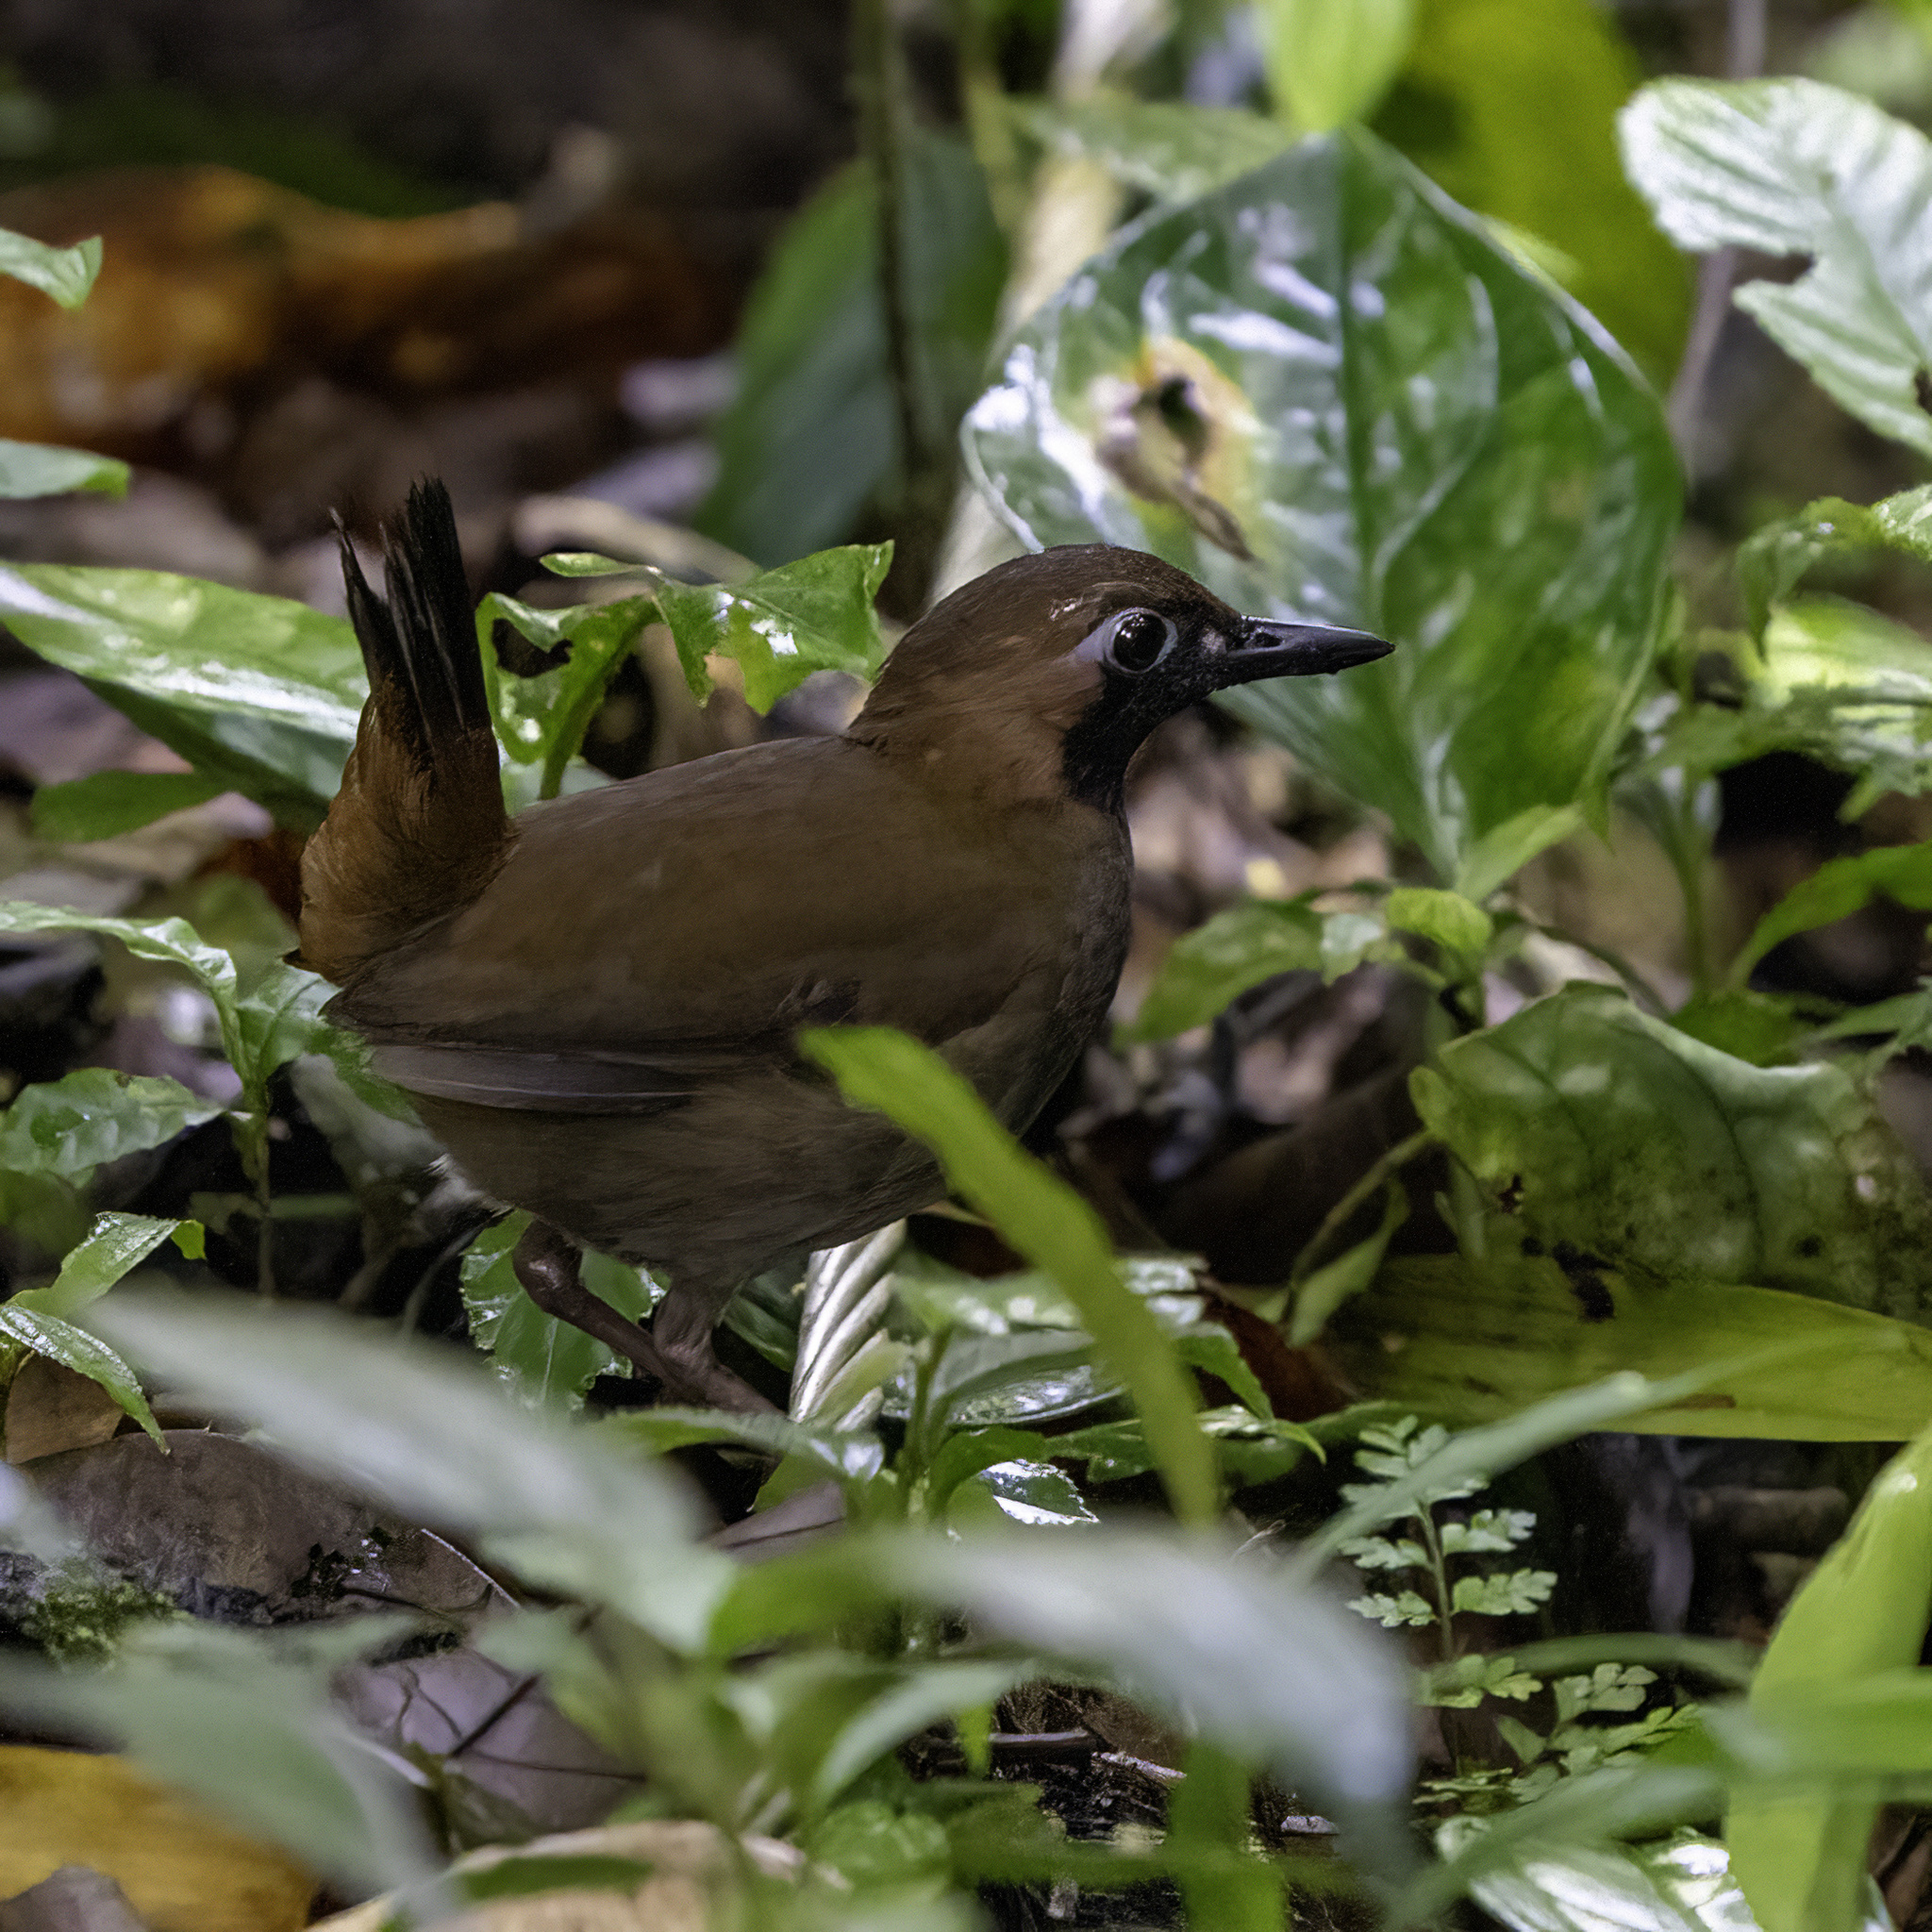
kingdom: Animalia
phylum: Chordata
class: Aves
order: Passeriformes
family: Formicariidae
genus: Formicarius
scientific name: Formicarius analis
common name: Black-faced antthrush
